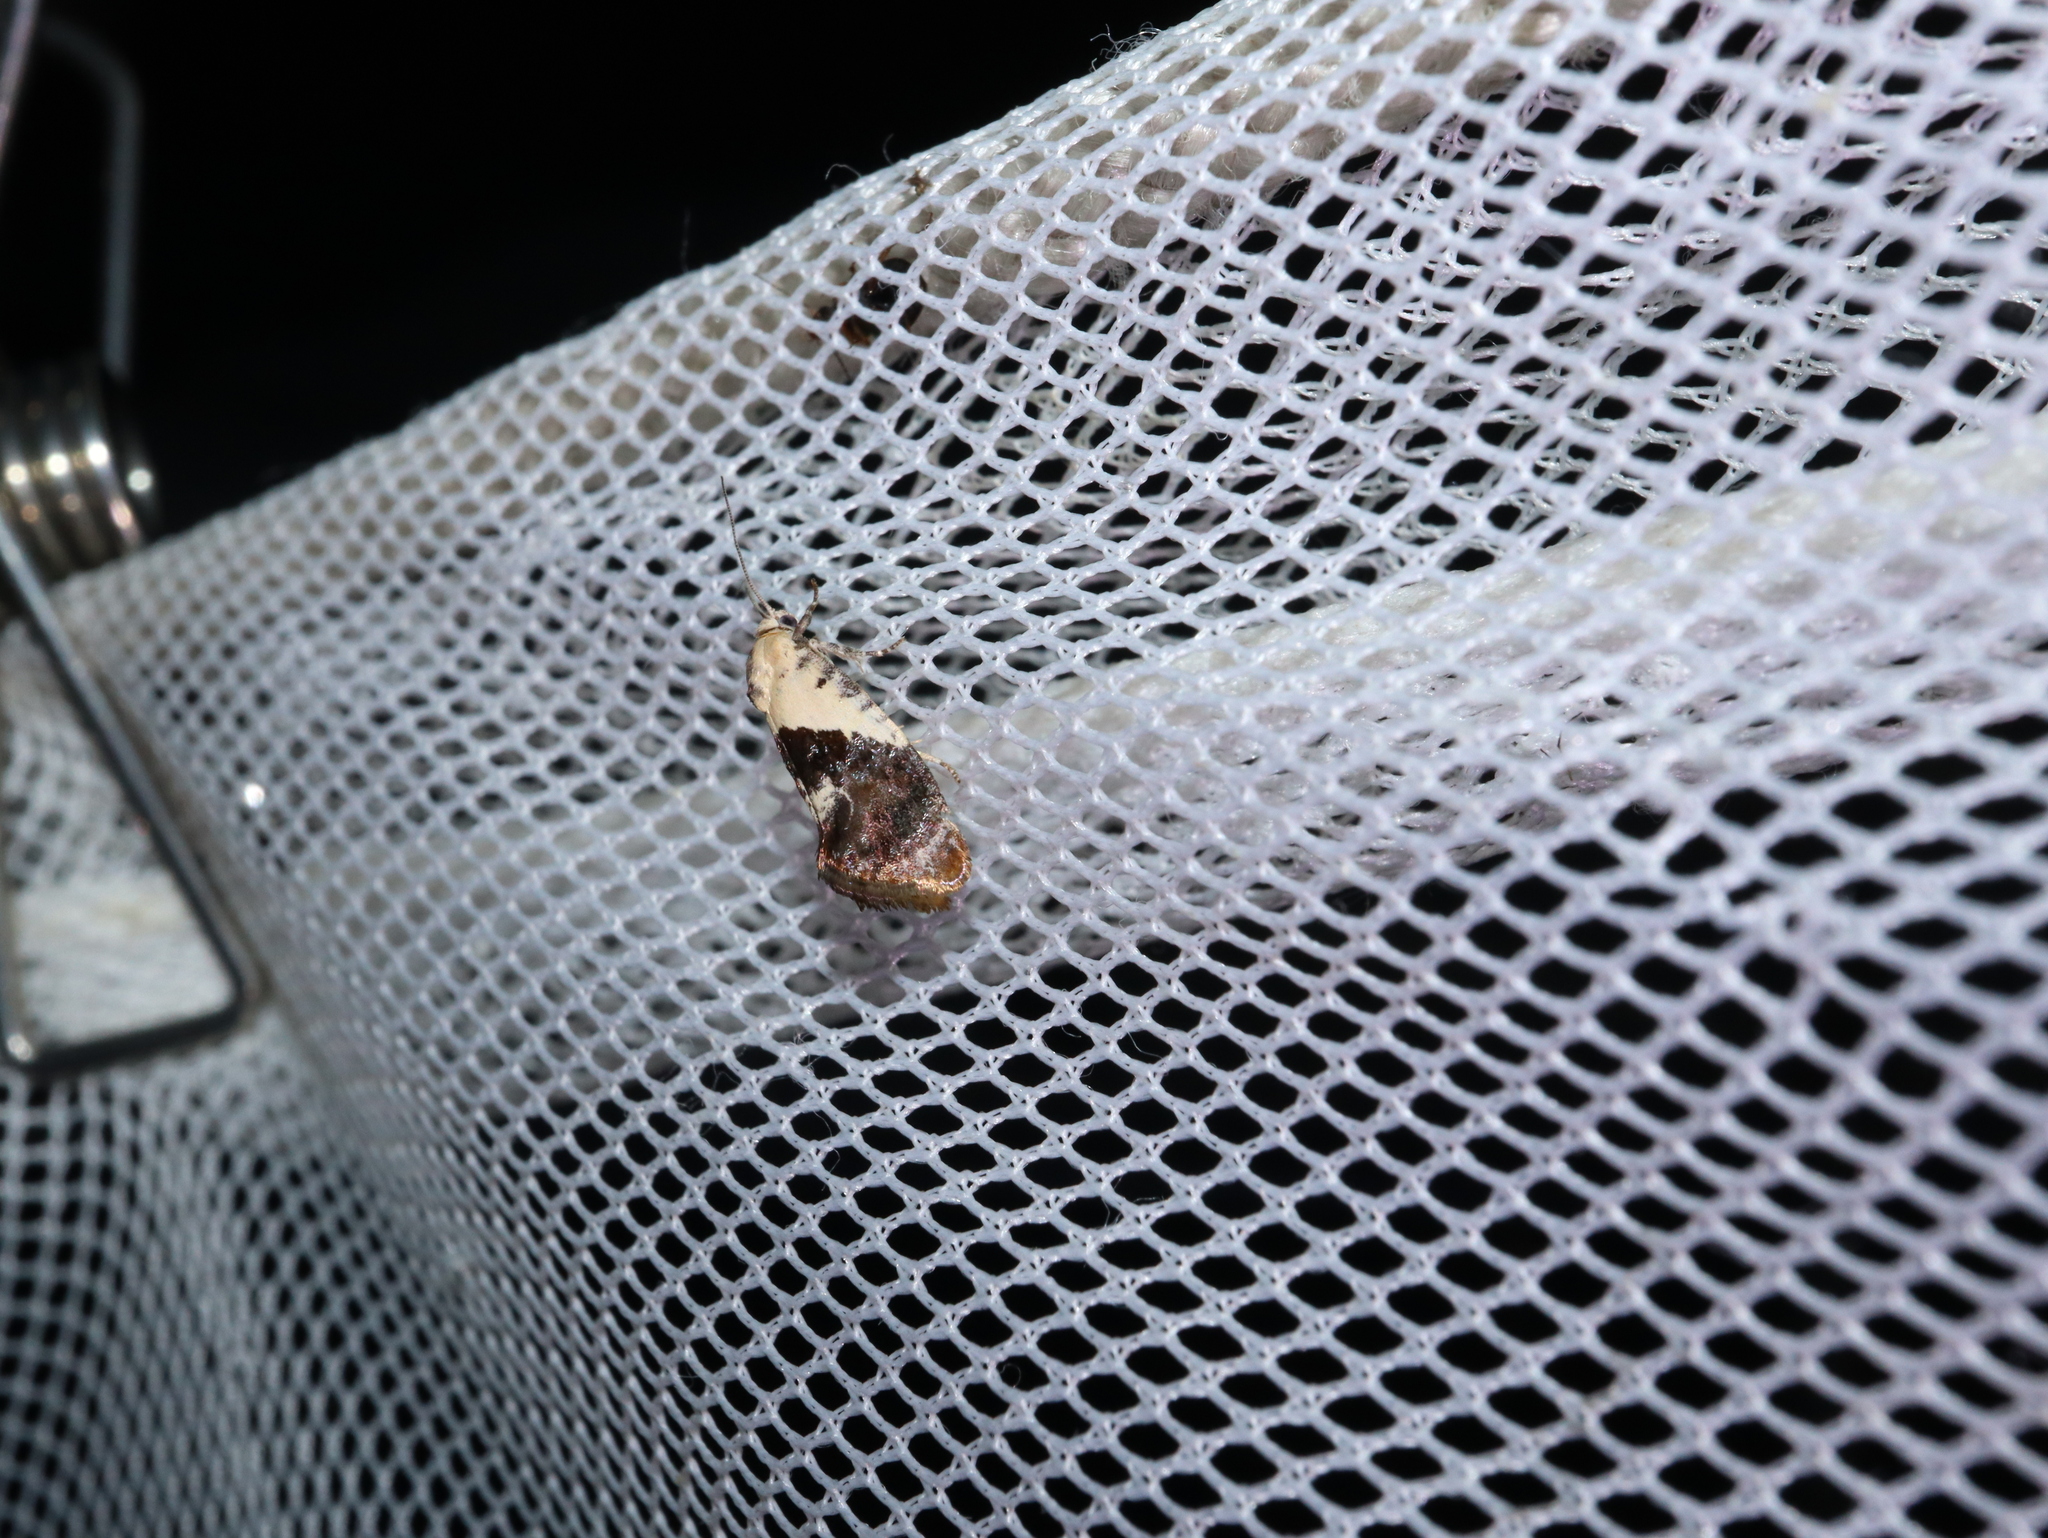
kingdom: Animalia
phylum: Arthropoda
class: Insecta
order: Lepidoptera
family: Depressariidae
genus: Hypertropha
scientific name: Hypertropha chlaenota
